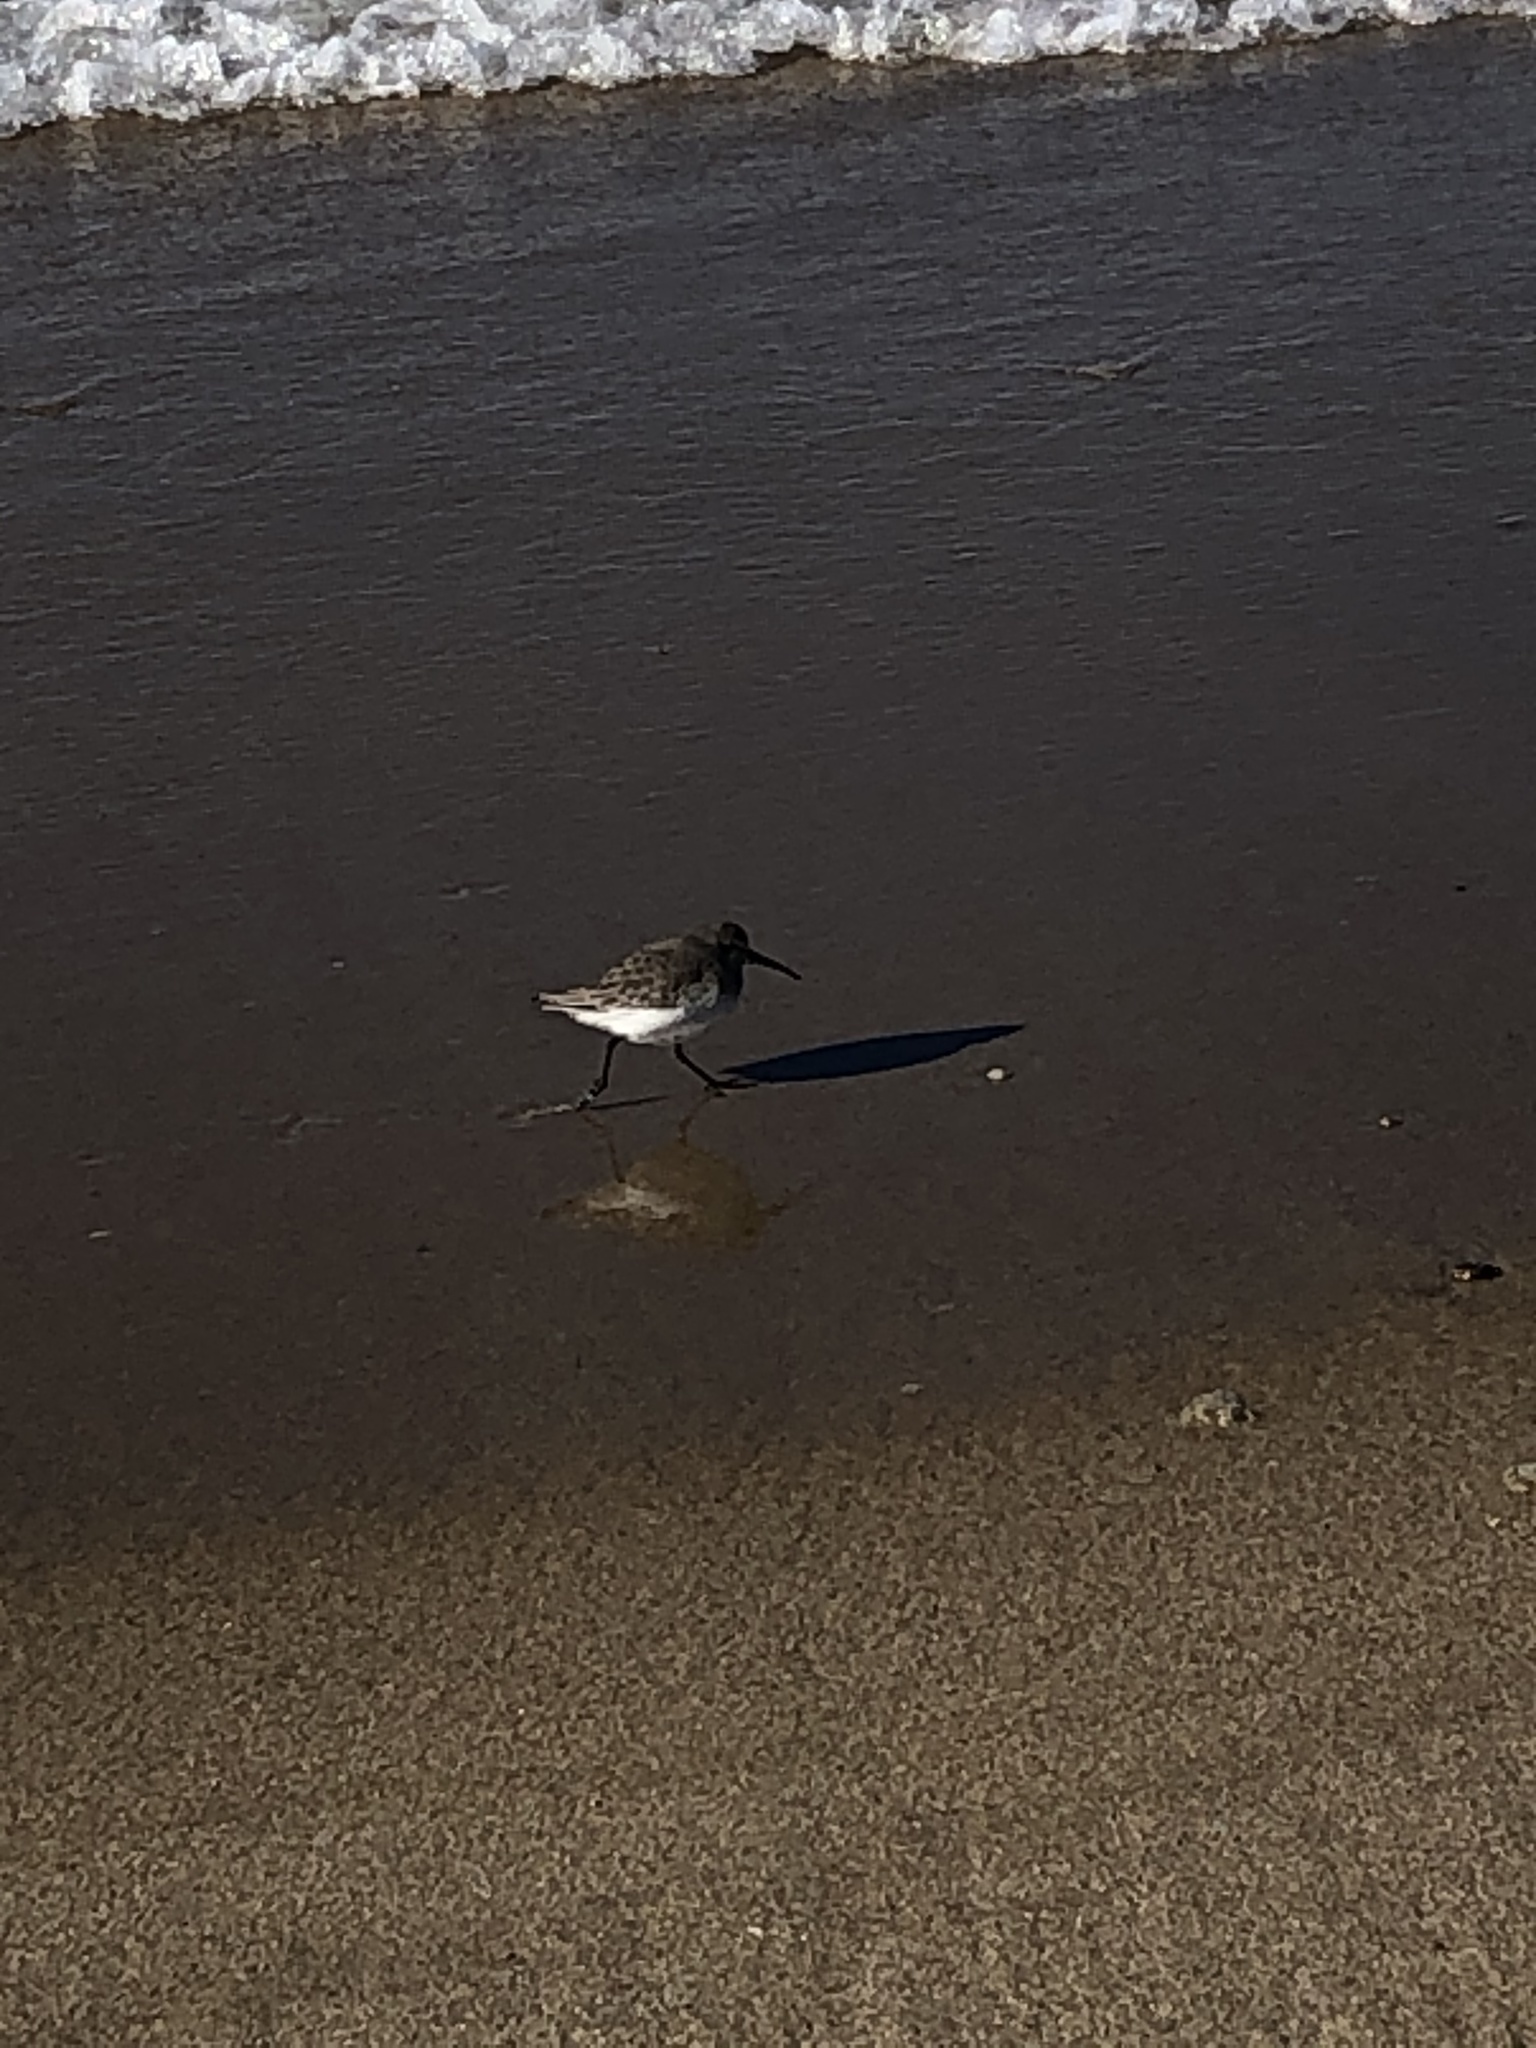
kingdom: Animalia
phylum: Chordata
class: Aves
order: Charadriiformes
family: Scolopacidae
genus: Calidris
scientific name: Calidris alpina
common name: Dunlin
